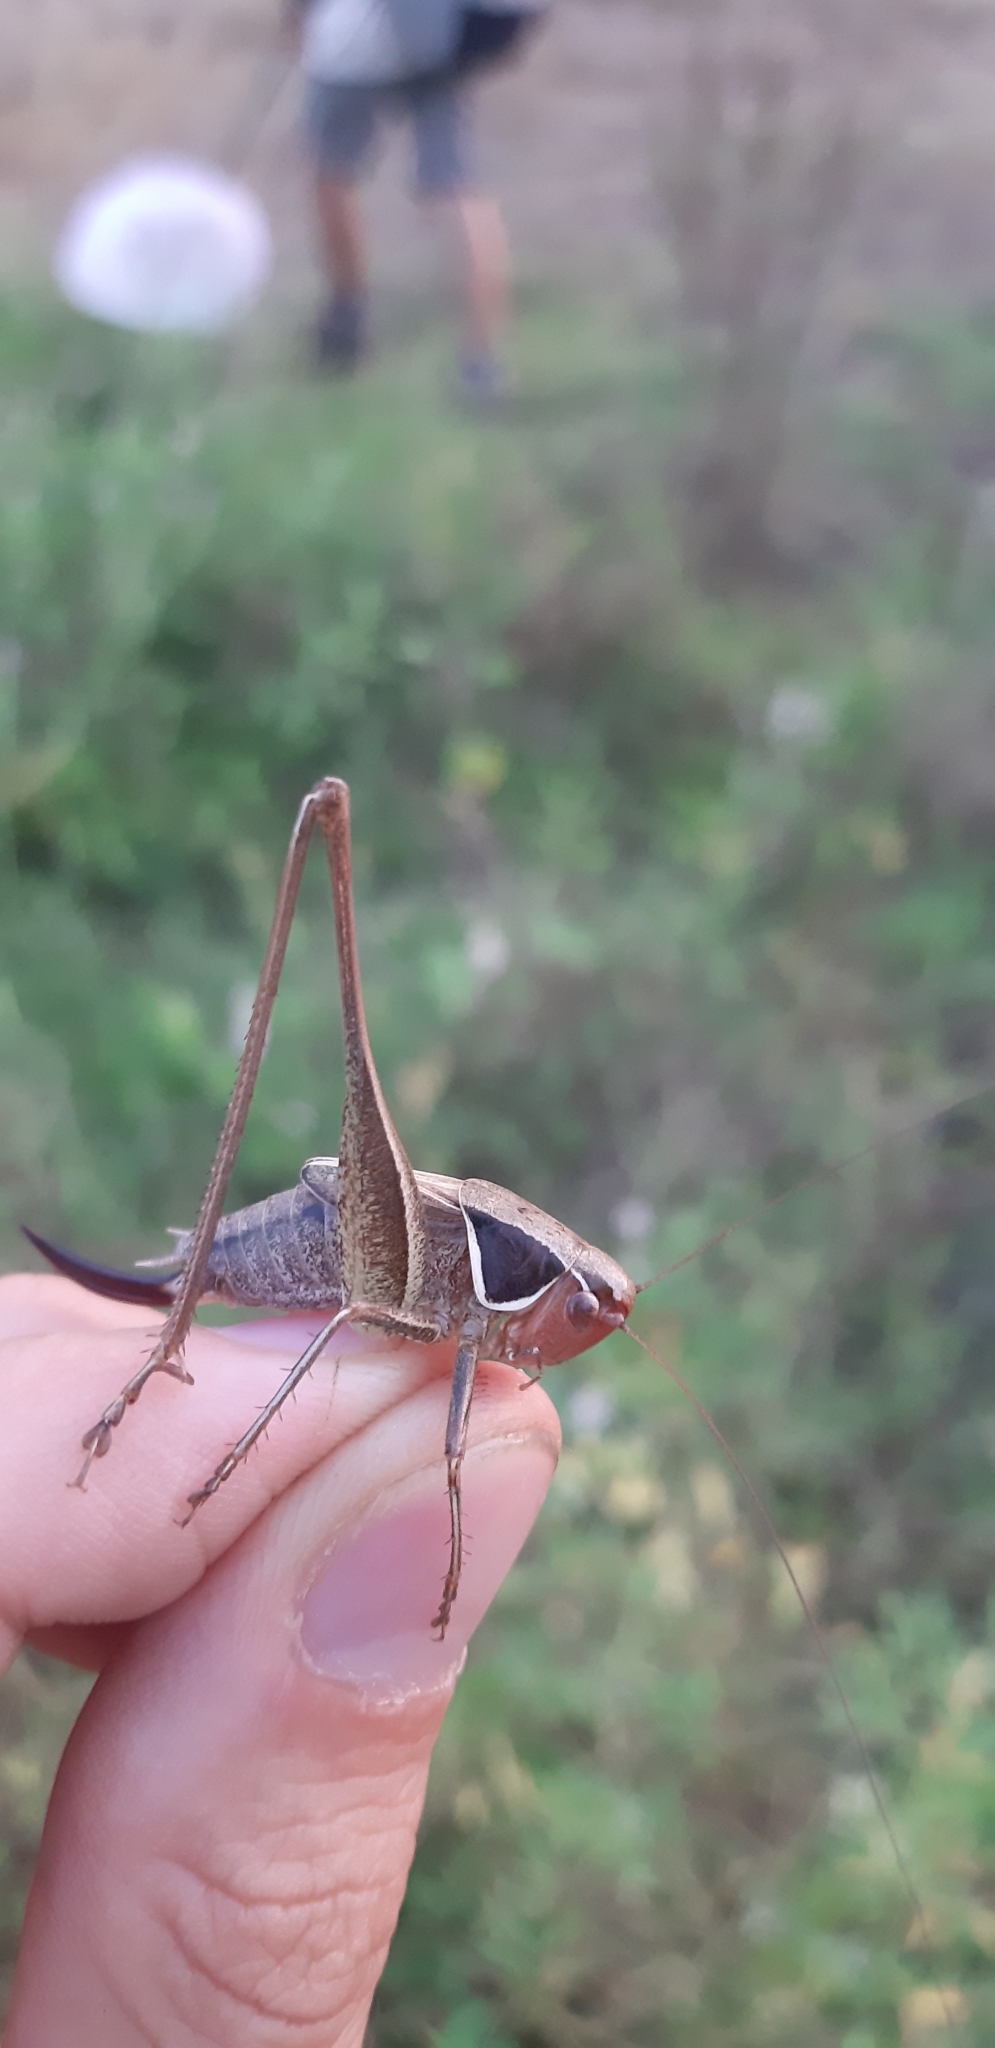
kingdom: Animalia
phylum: Arthropoda
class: Insecta
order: Orthoptera
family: Tettigoniidae
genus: Sepiana
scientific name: Sepiana sepium
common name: Sepia bush-cricket
